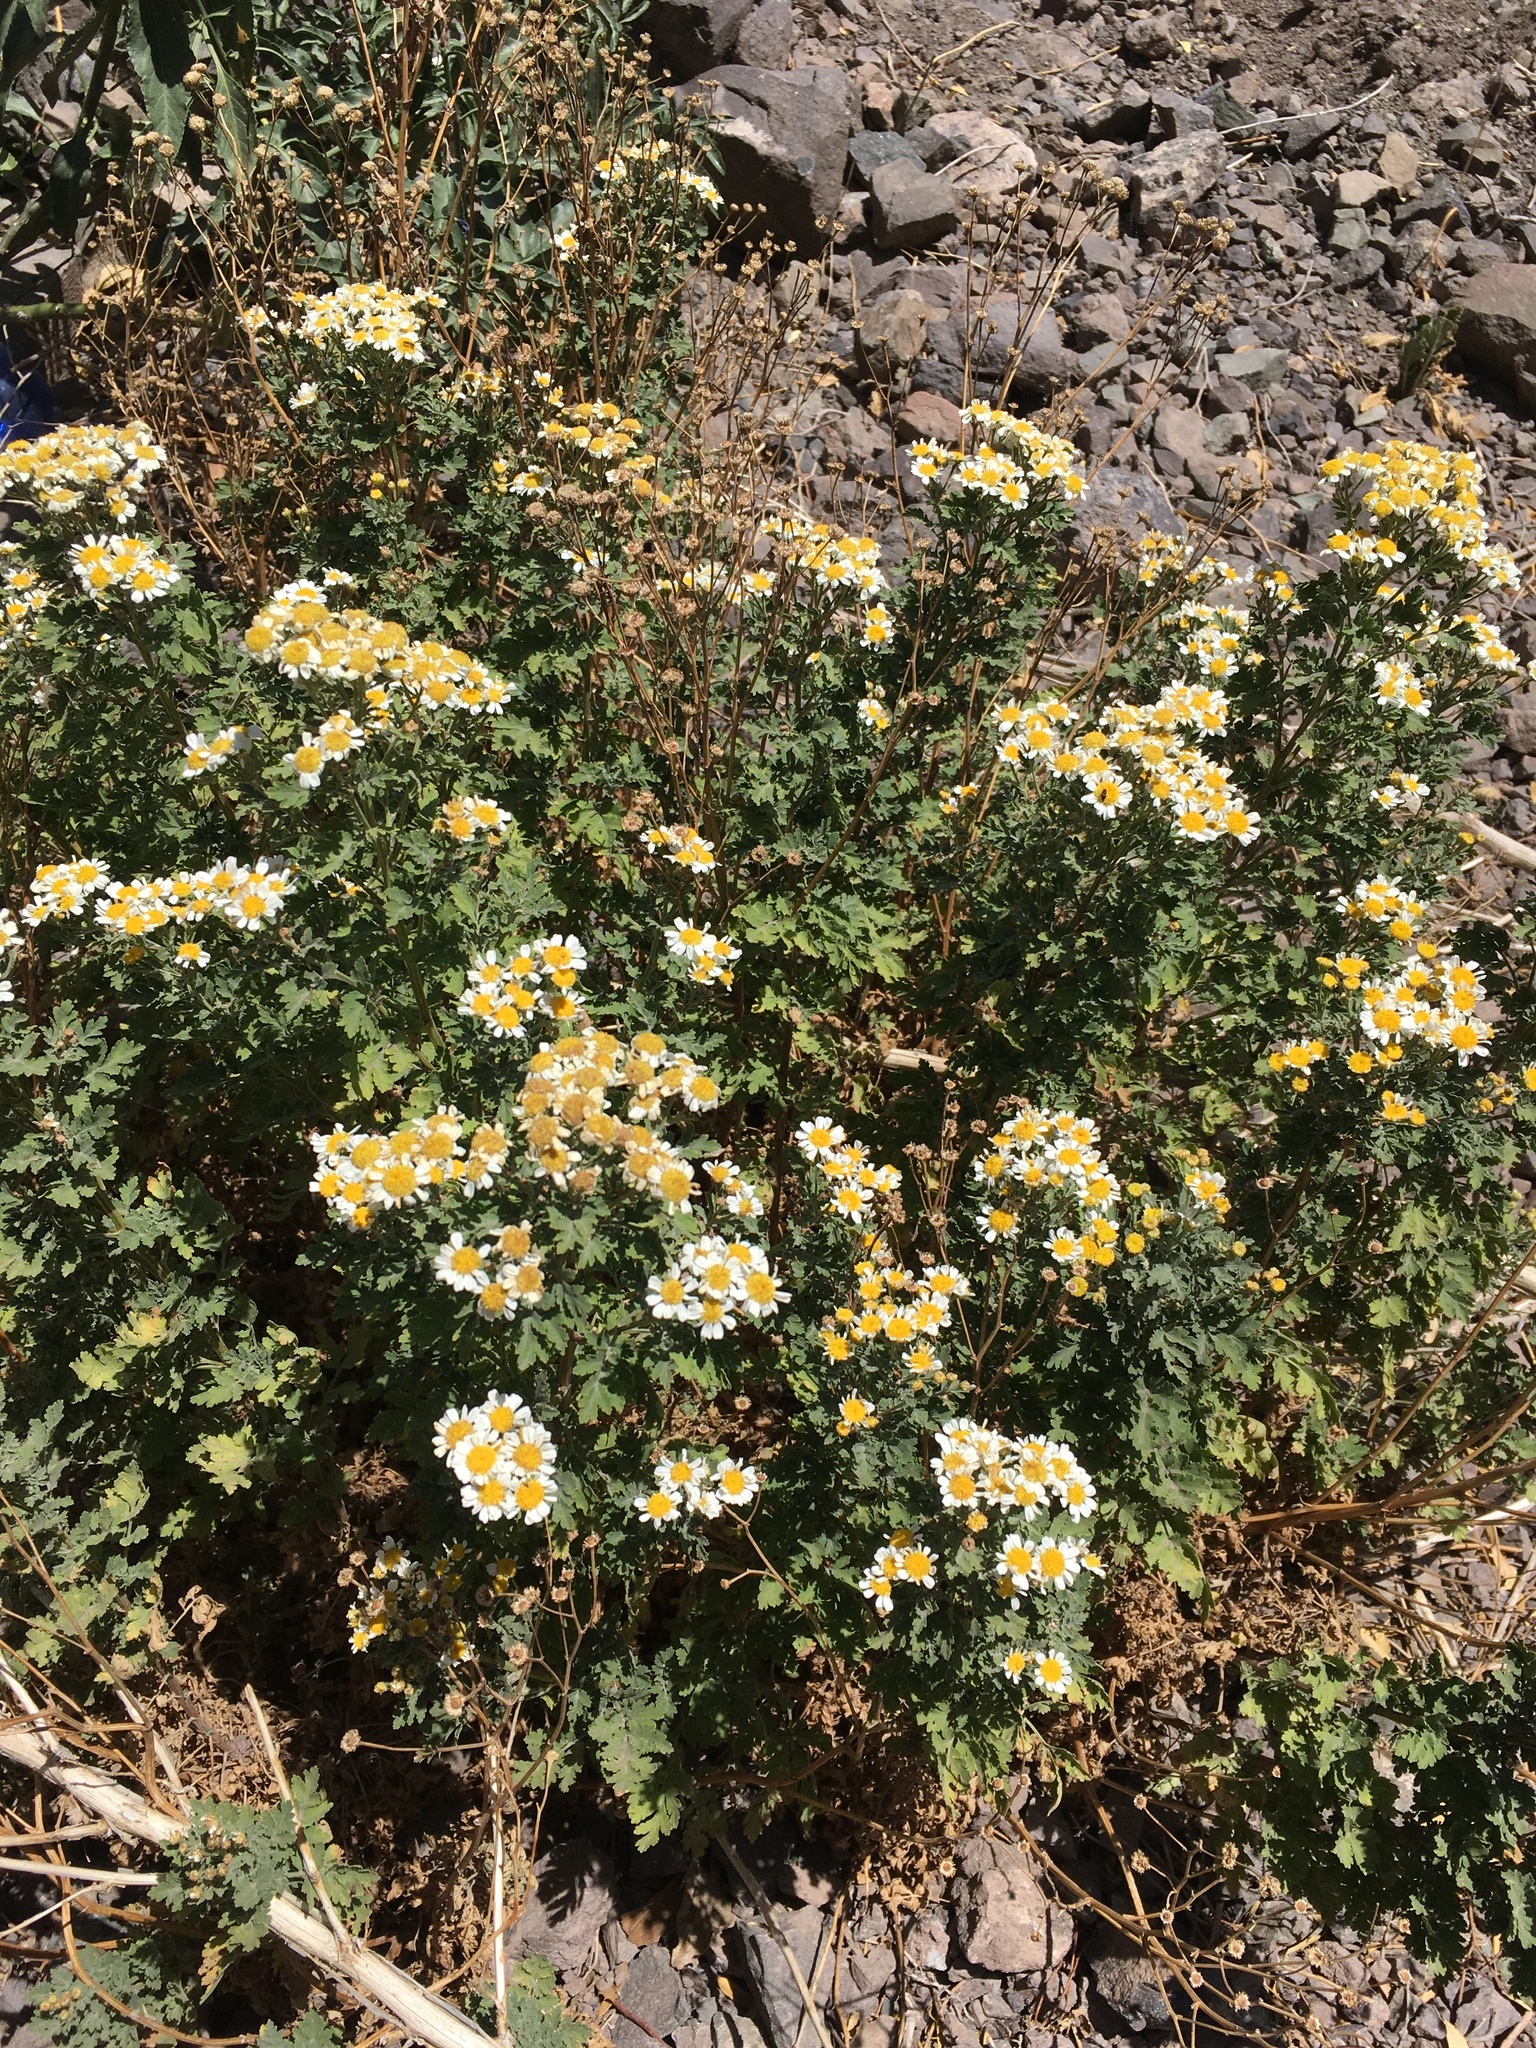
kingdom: Plantae
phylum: Tracheophyta
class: Magnoliopsida
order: Asterales
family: Asteraceae
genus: Tanacetum
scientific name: Tanacetum parthenium
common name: Feverfew
